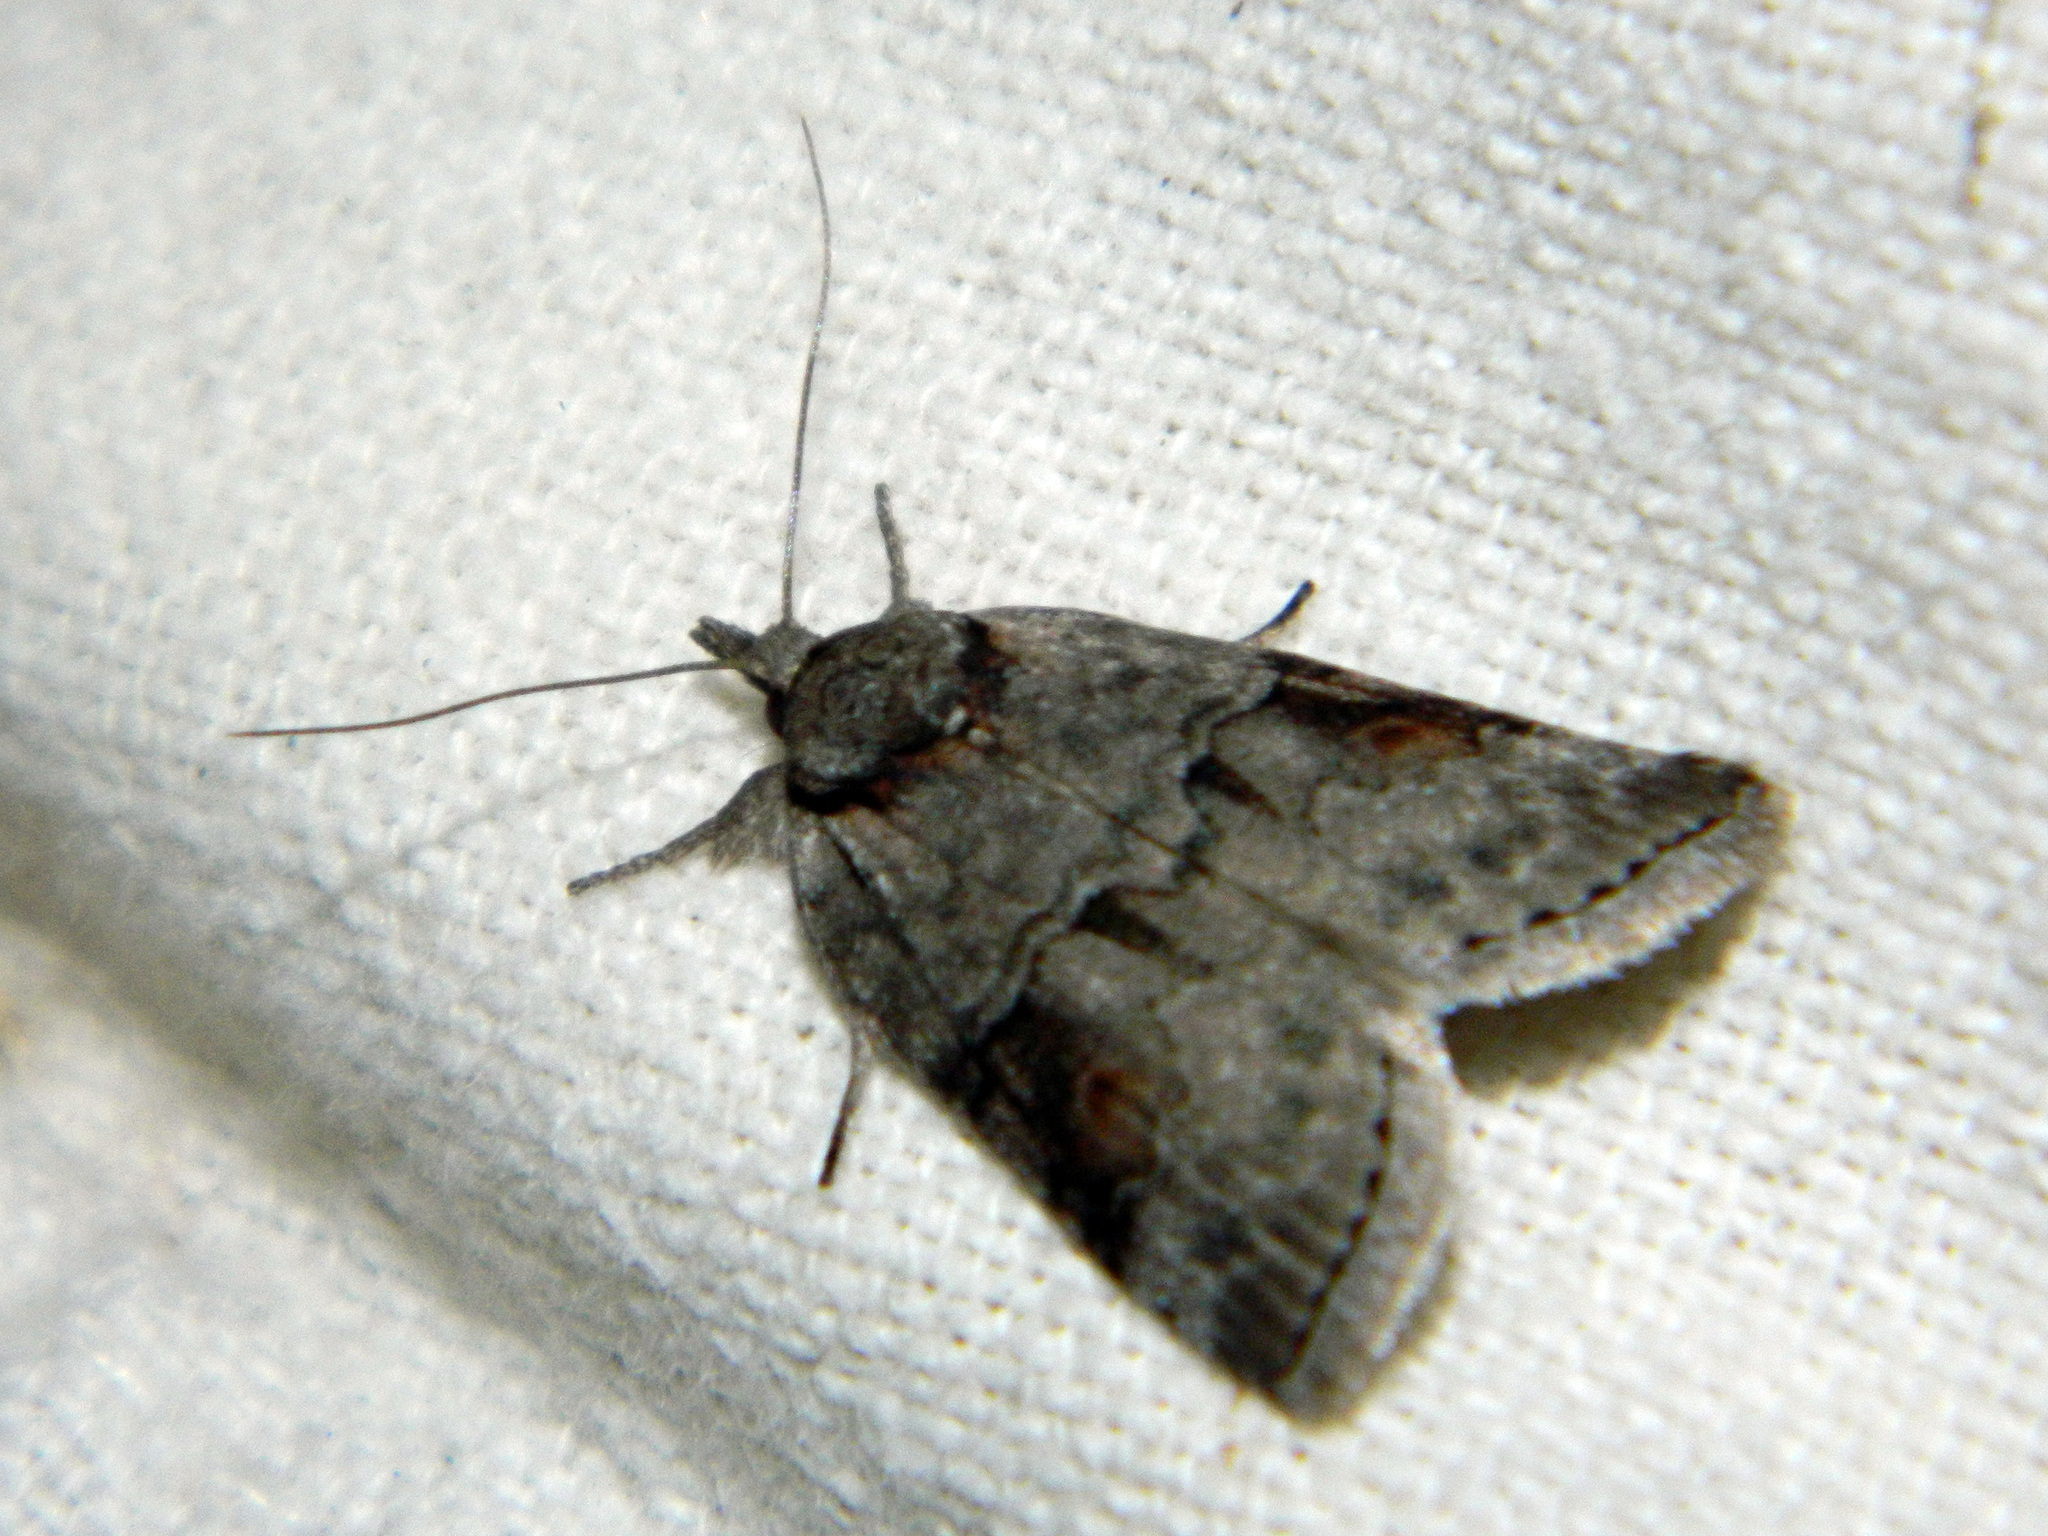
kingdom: Animalia
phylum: Arthropoda
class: Insecta
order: Lepidoptera
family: Nolidae
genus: Nycteola
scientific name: Nycteola cinereana
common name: Grey midget moth
